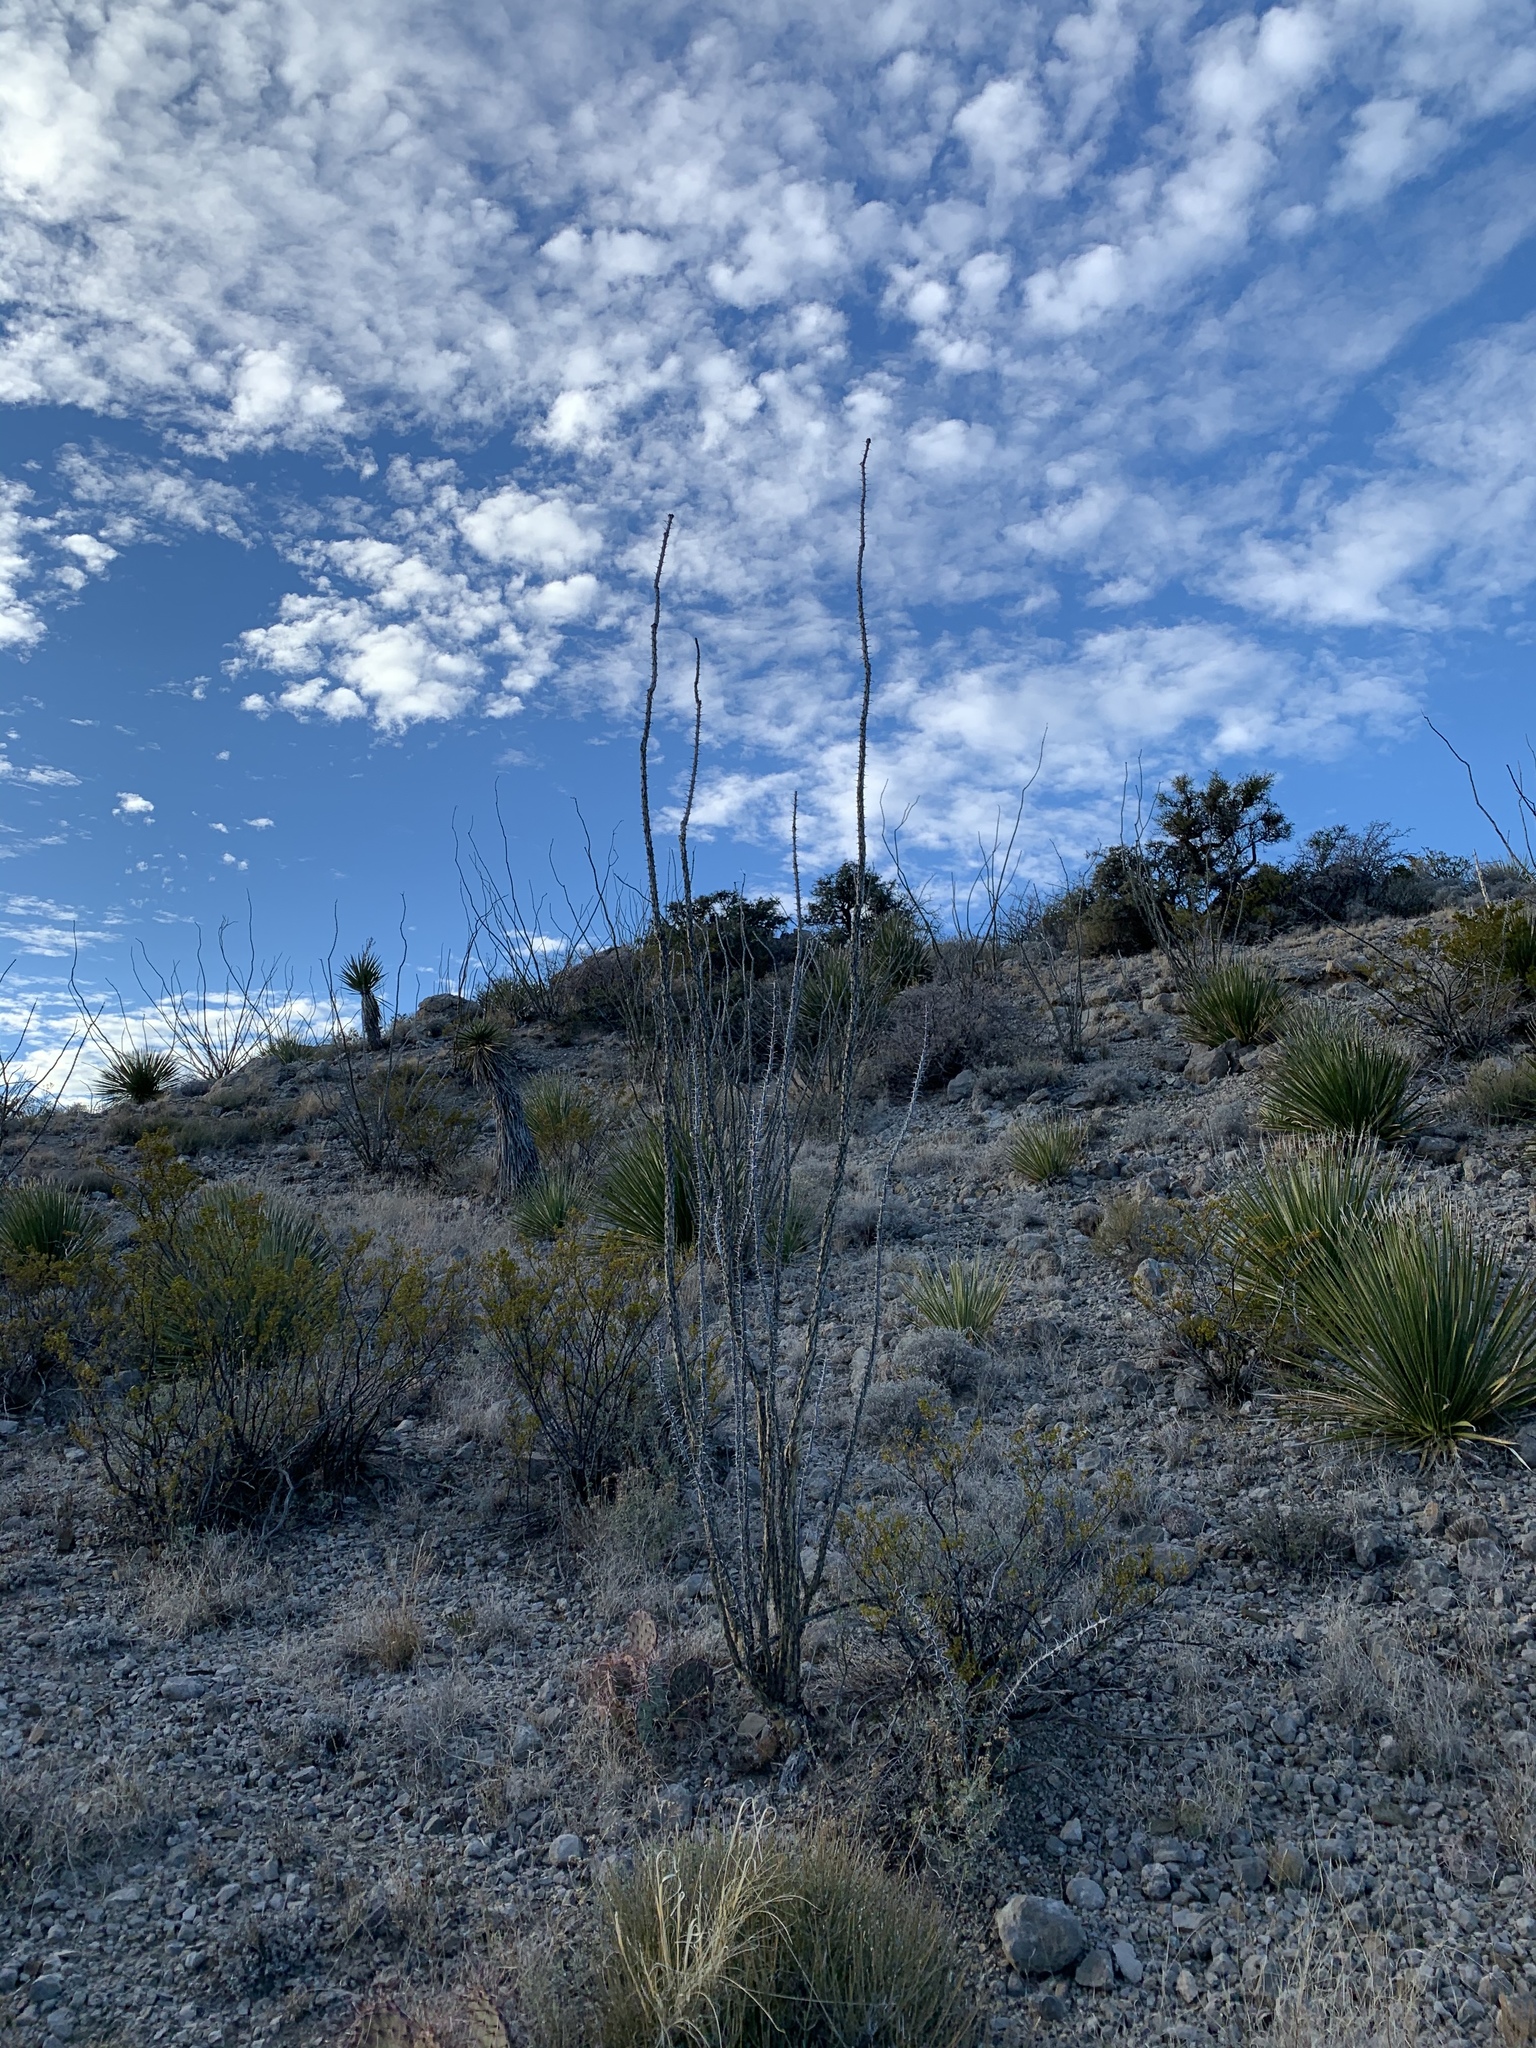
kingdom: Plantae
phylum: Tracheophyta
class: Magnoliopsida
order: Ericales
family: Fouquieriaceae
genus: Fouquieria
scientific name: Fouquieria splendens
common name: Vine-cactus
